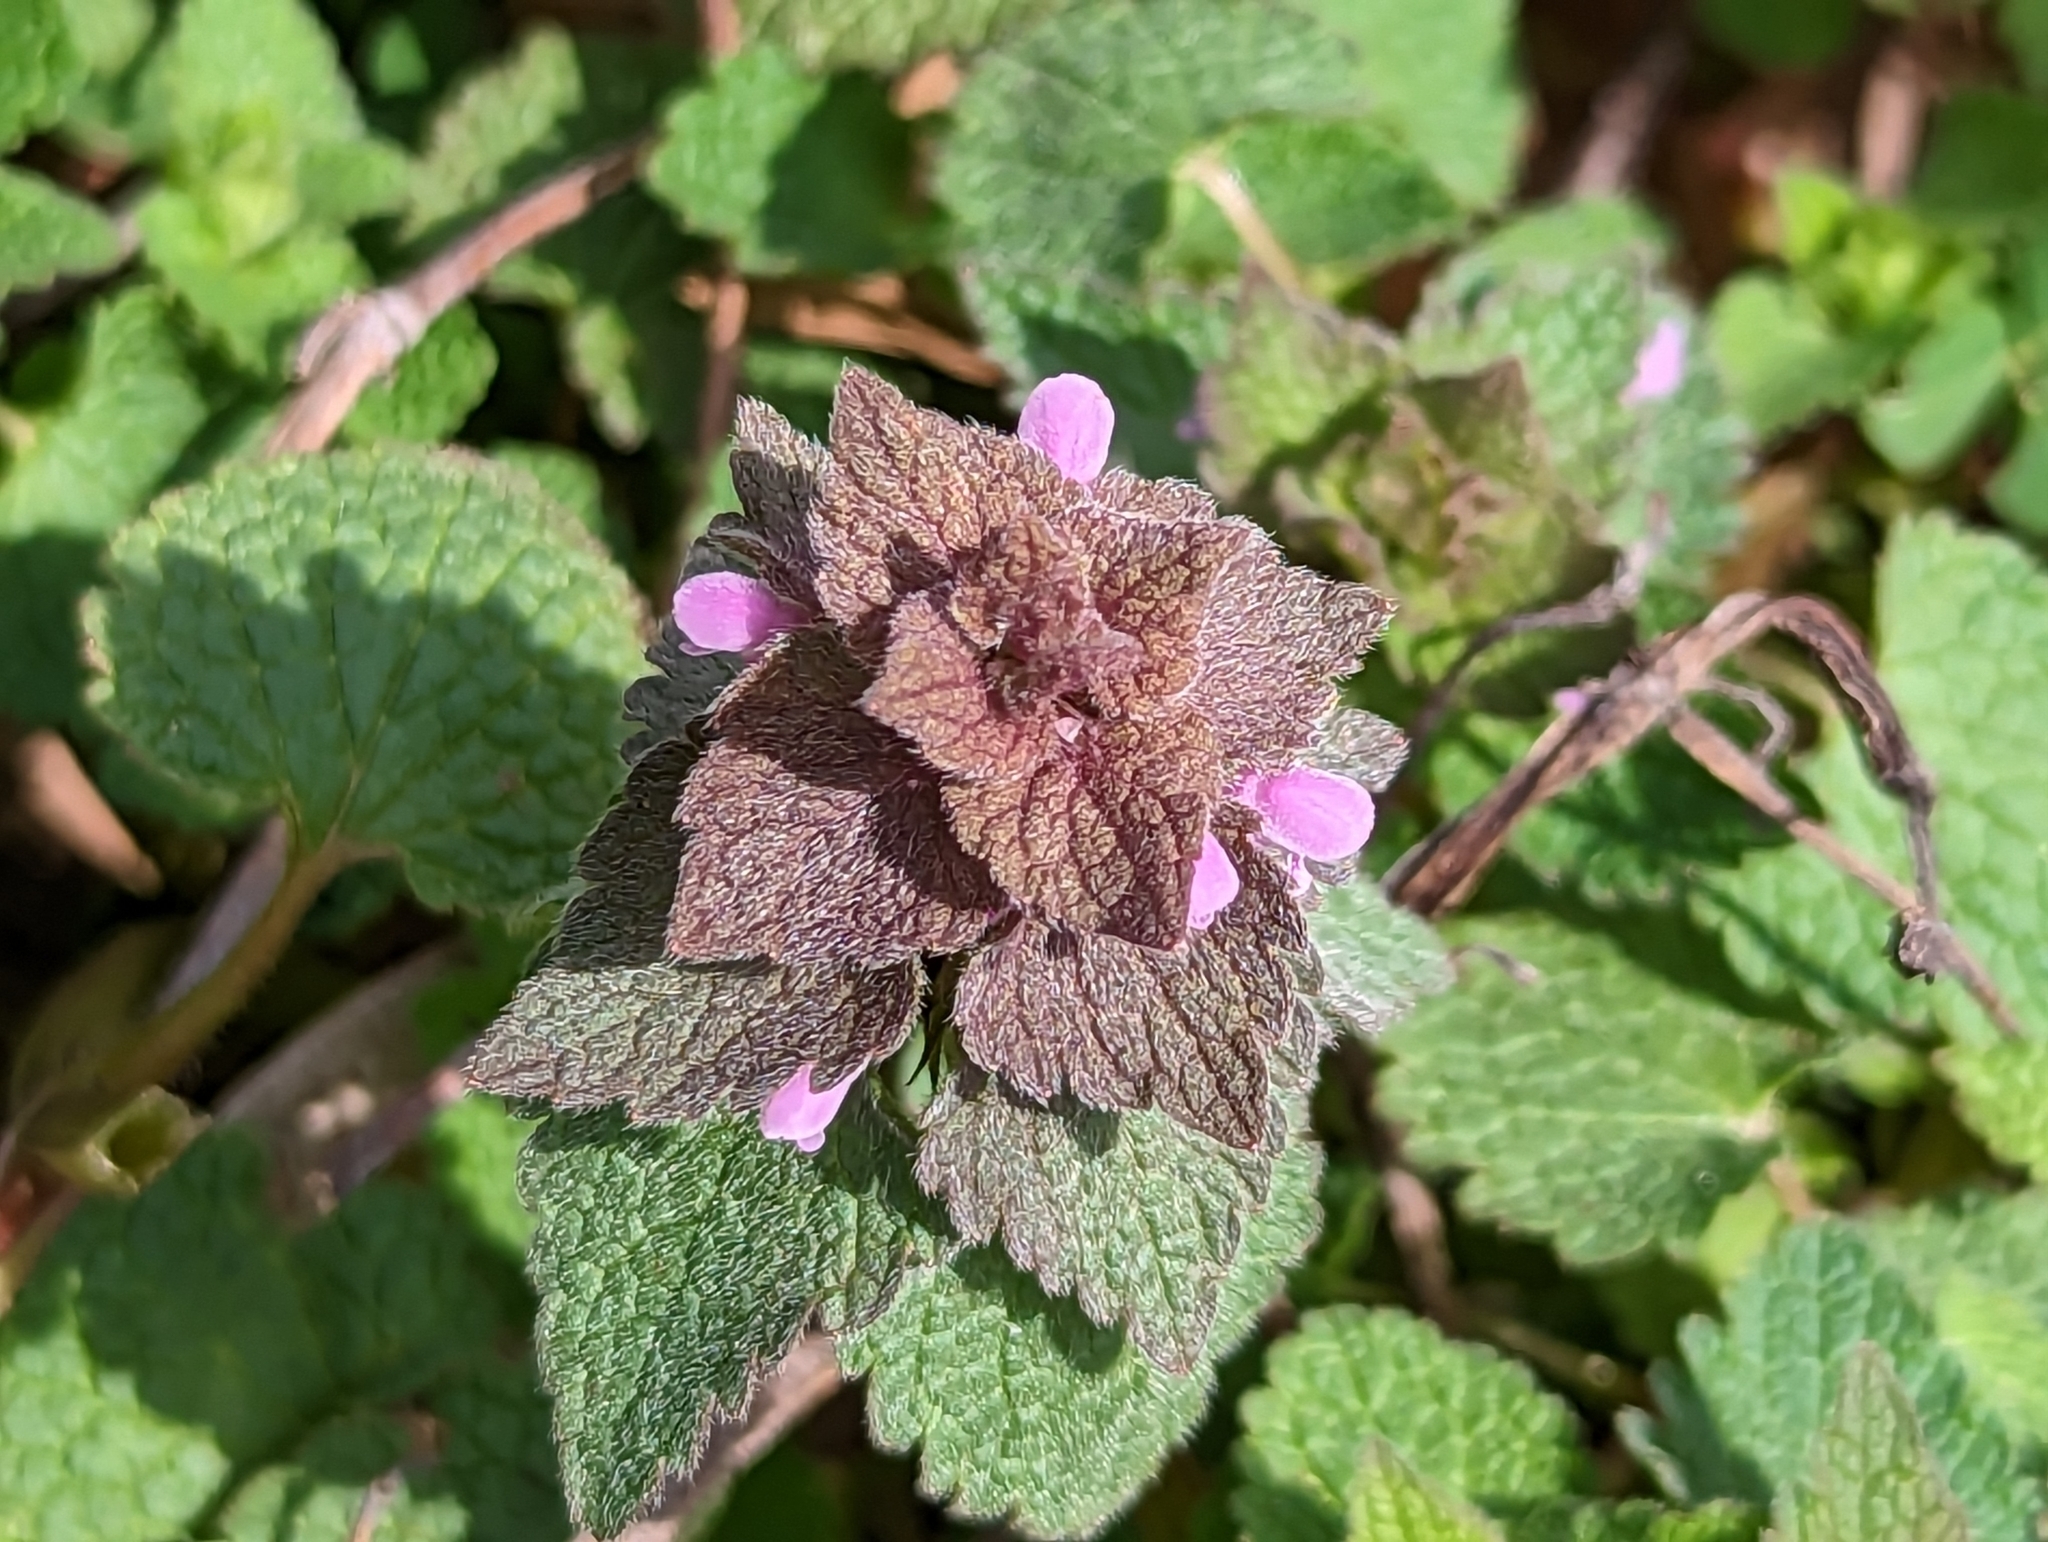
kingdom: Plantae
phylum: Tracheophyta
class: Magnoliopsida
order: Lamiales
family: Lamiaceae
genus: Lamium
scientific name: Lamium purpureum
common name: Red dead-nettle
